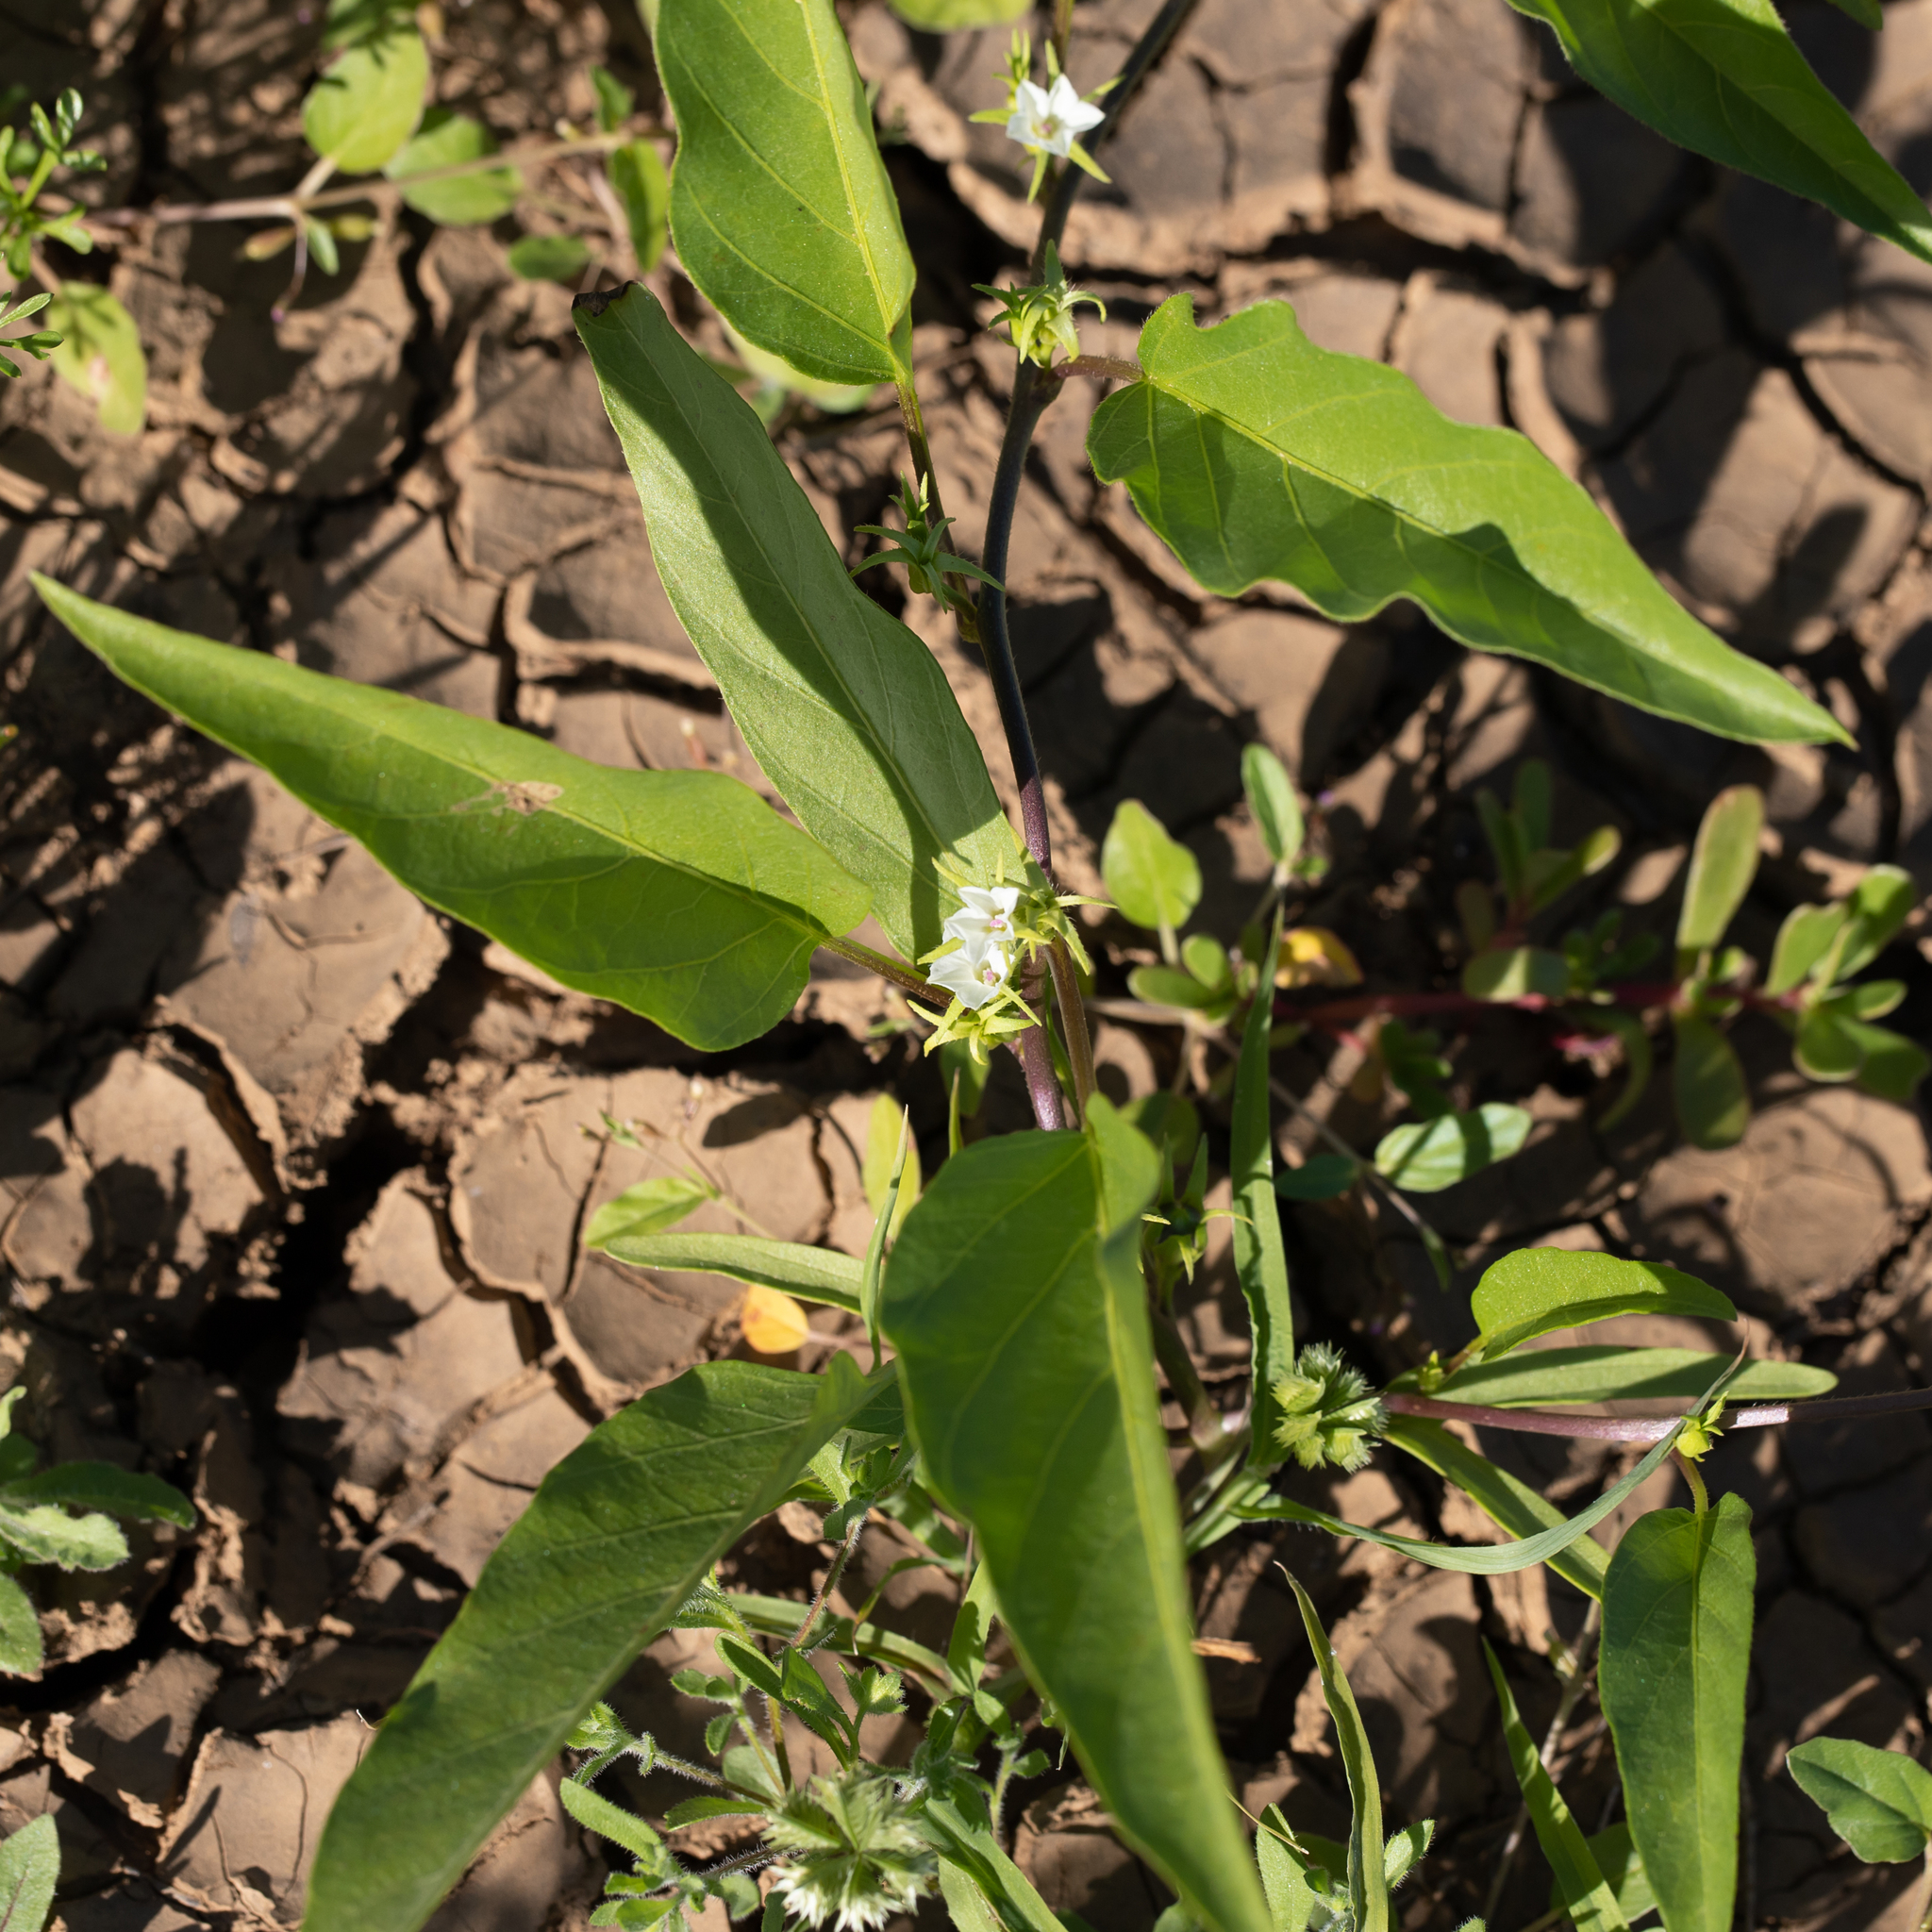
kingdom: Plantae
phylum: Tracheophyta
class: Magnoliopsida
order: Solanales
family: Convolvulaceae
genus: Ipomoea
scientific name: Ipomoea lonchophylla
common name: Cowvine
